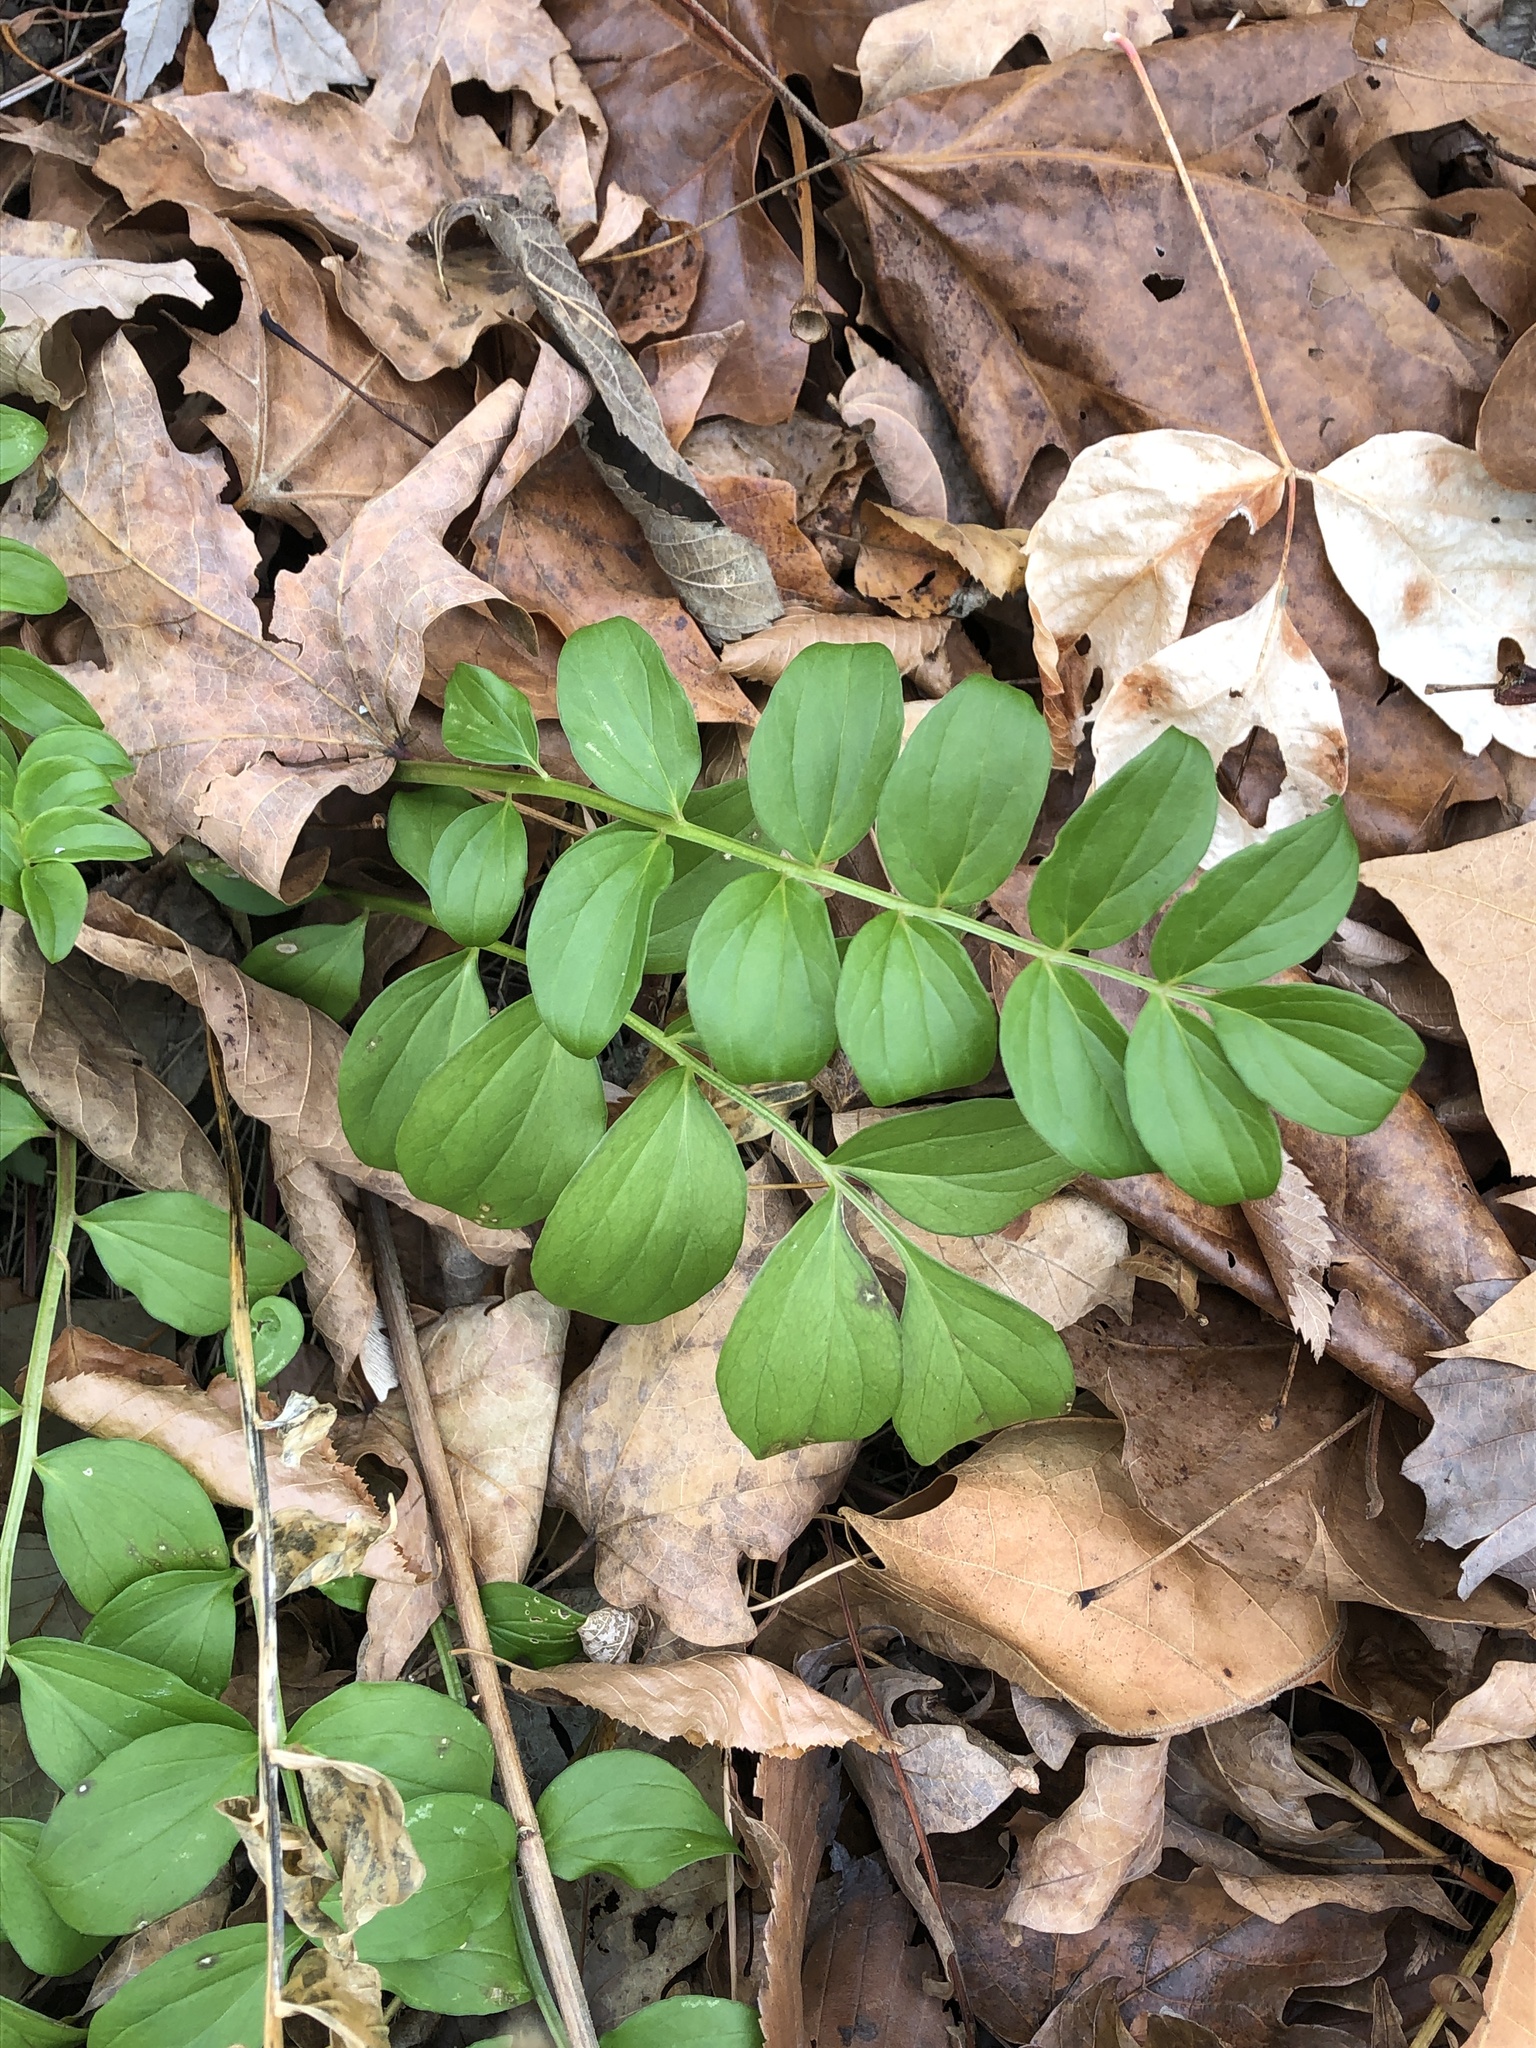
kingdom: Plantae
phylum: Tracheophyta
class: Magnoliopsida
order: Ericales
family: Polemoniaceae
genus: Polemonium
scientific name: Polemonium reptans
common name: Creeping jacob's-ladder
